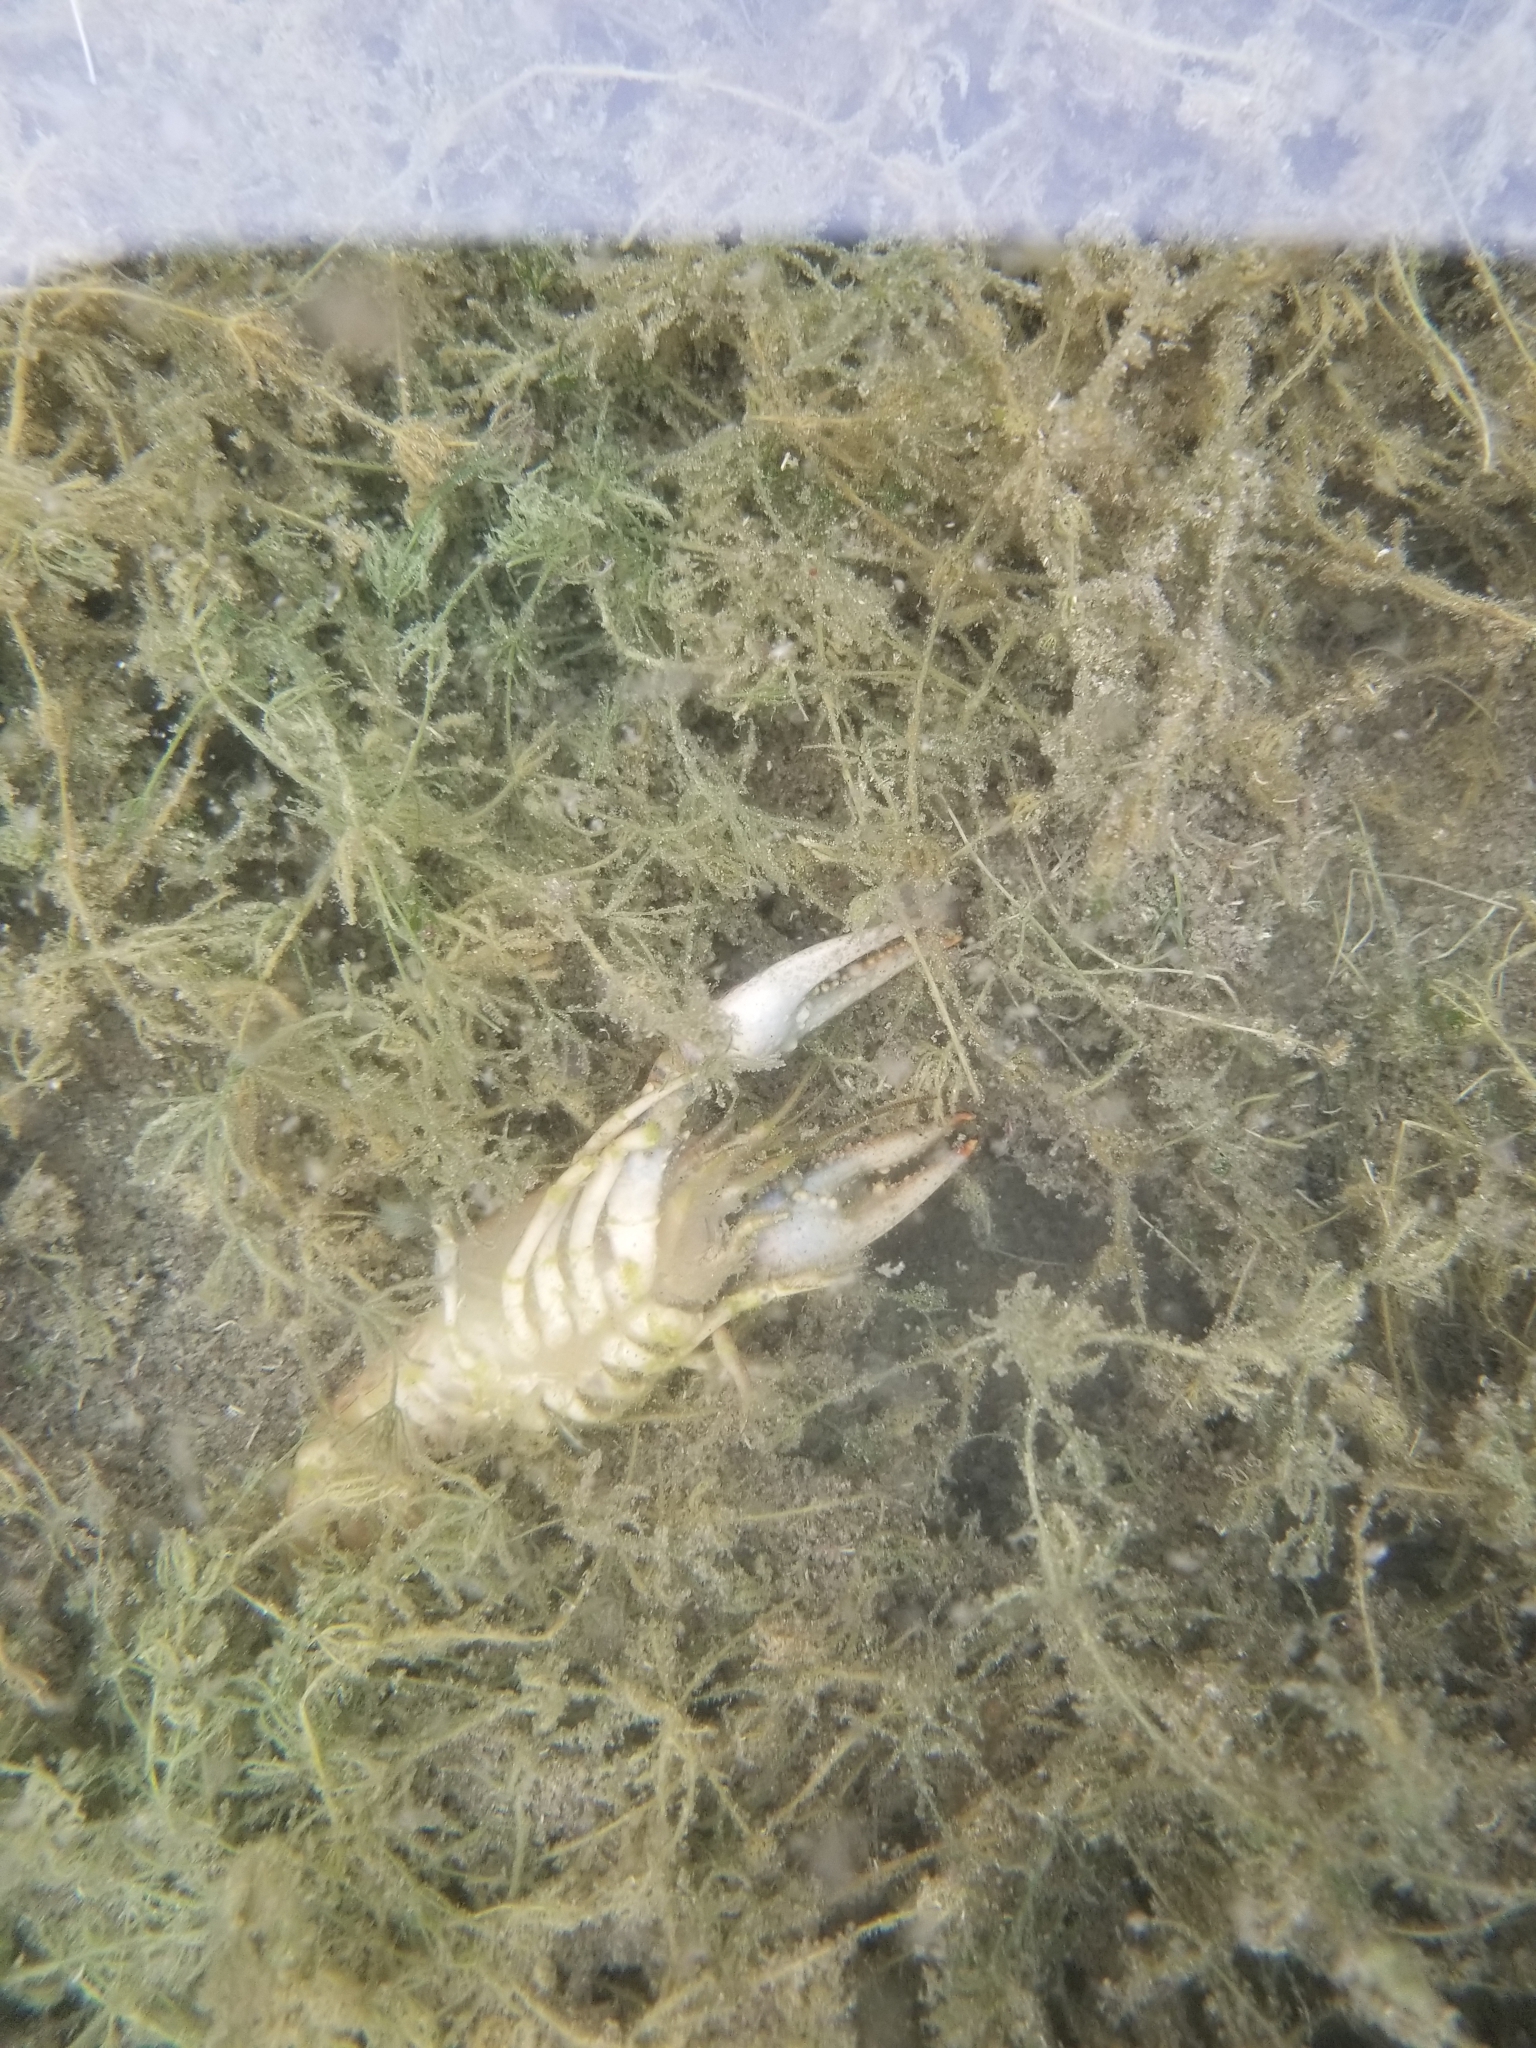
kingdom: Animalia
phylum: Arthropoda
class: Malacostraca
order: Decapoda
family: Cambaridae
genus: Faxonius
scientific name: Faxonius virilis
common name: Virile crayfish
